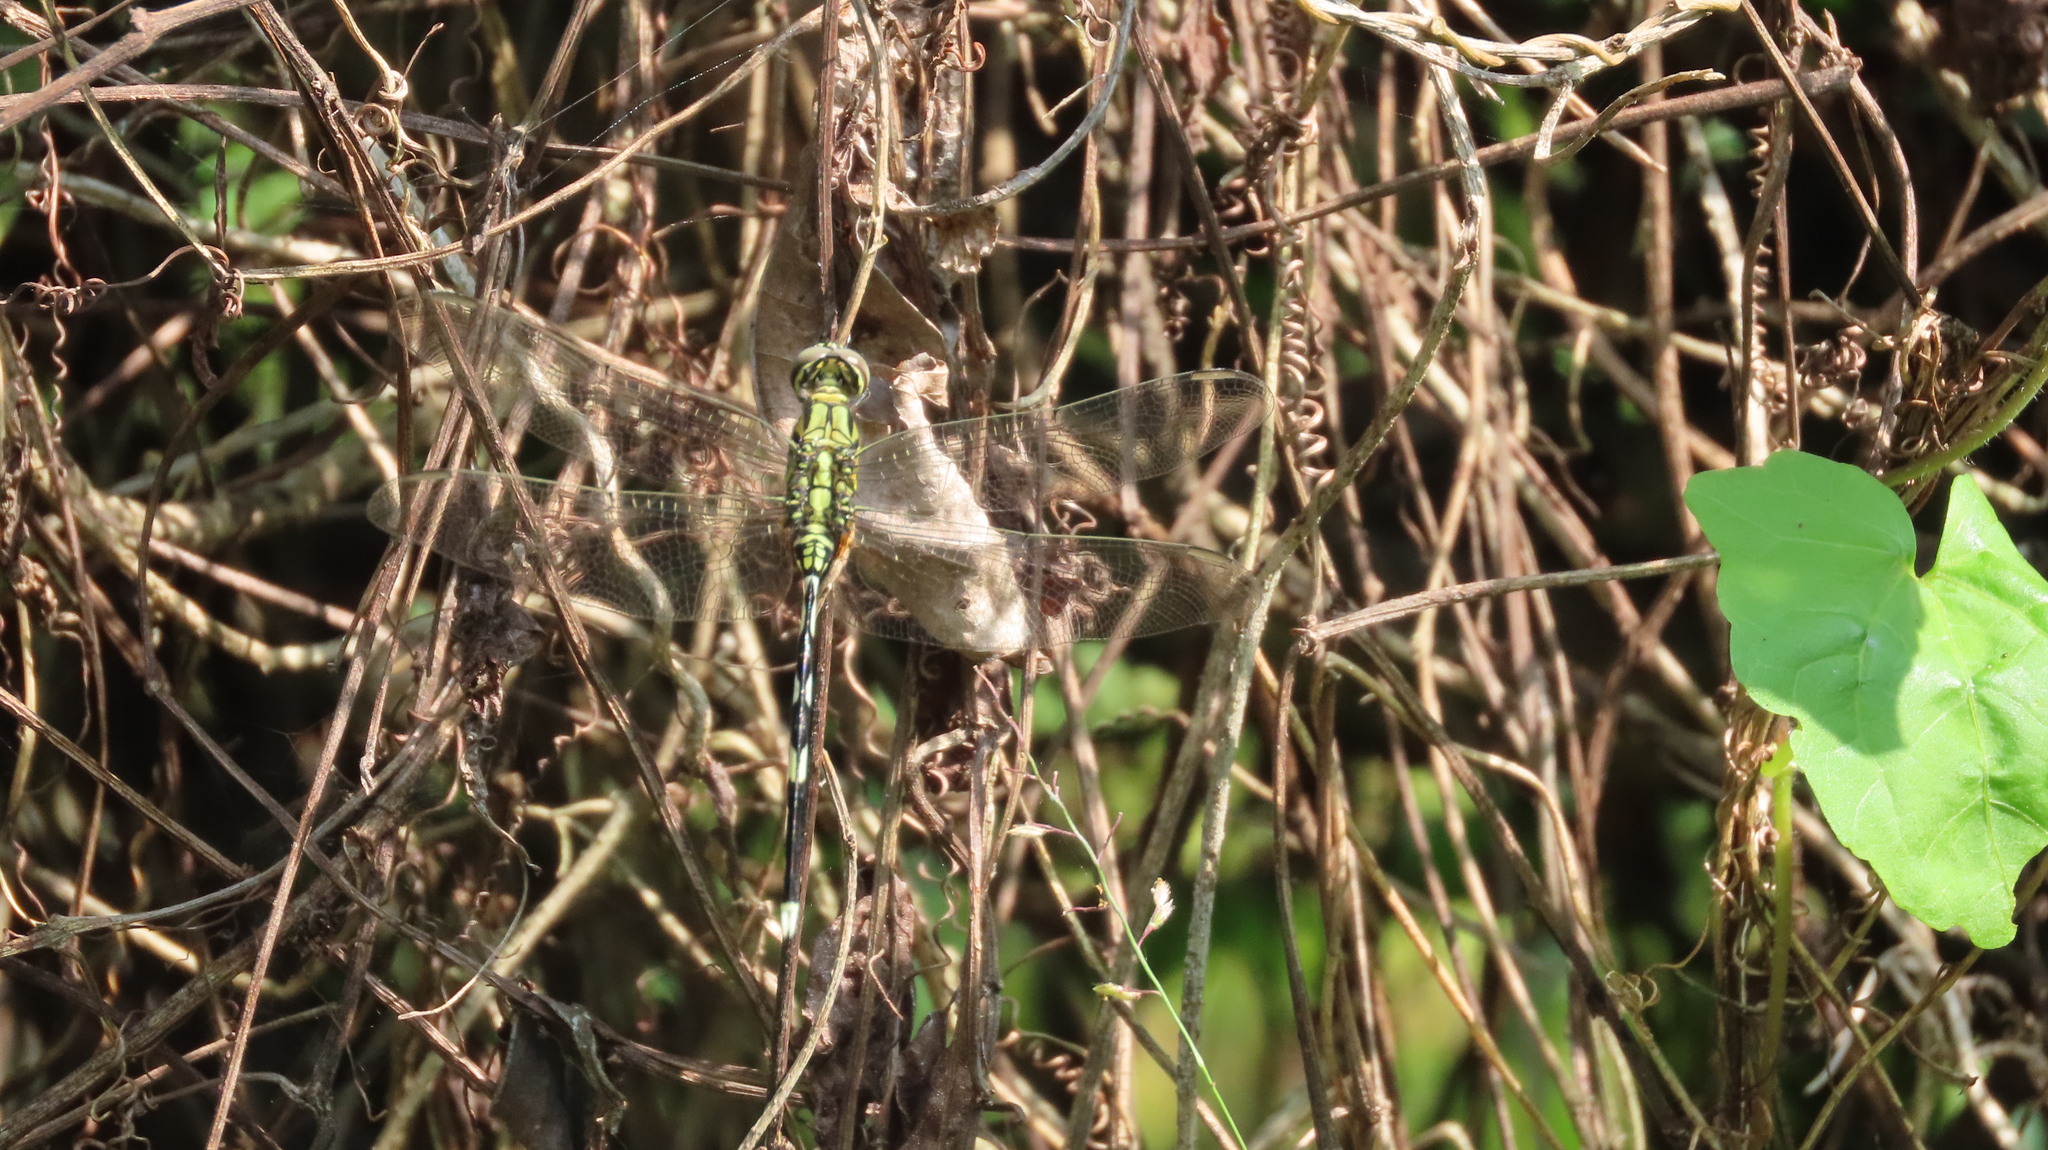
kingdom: Animalia
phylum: Arthropoda
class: Insecta
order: Odonata
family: Libellulidae
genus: Orthetrum
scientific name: Orthetrum sabina
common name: Slender skimmer
